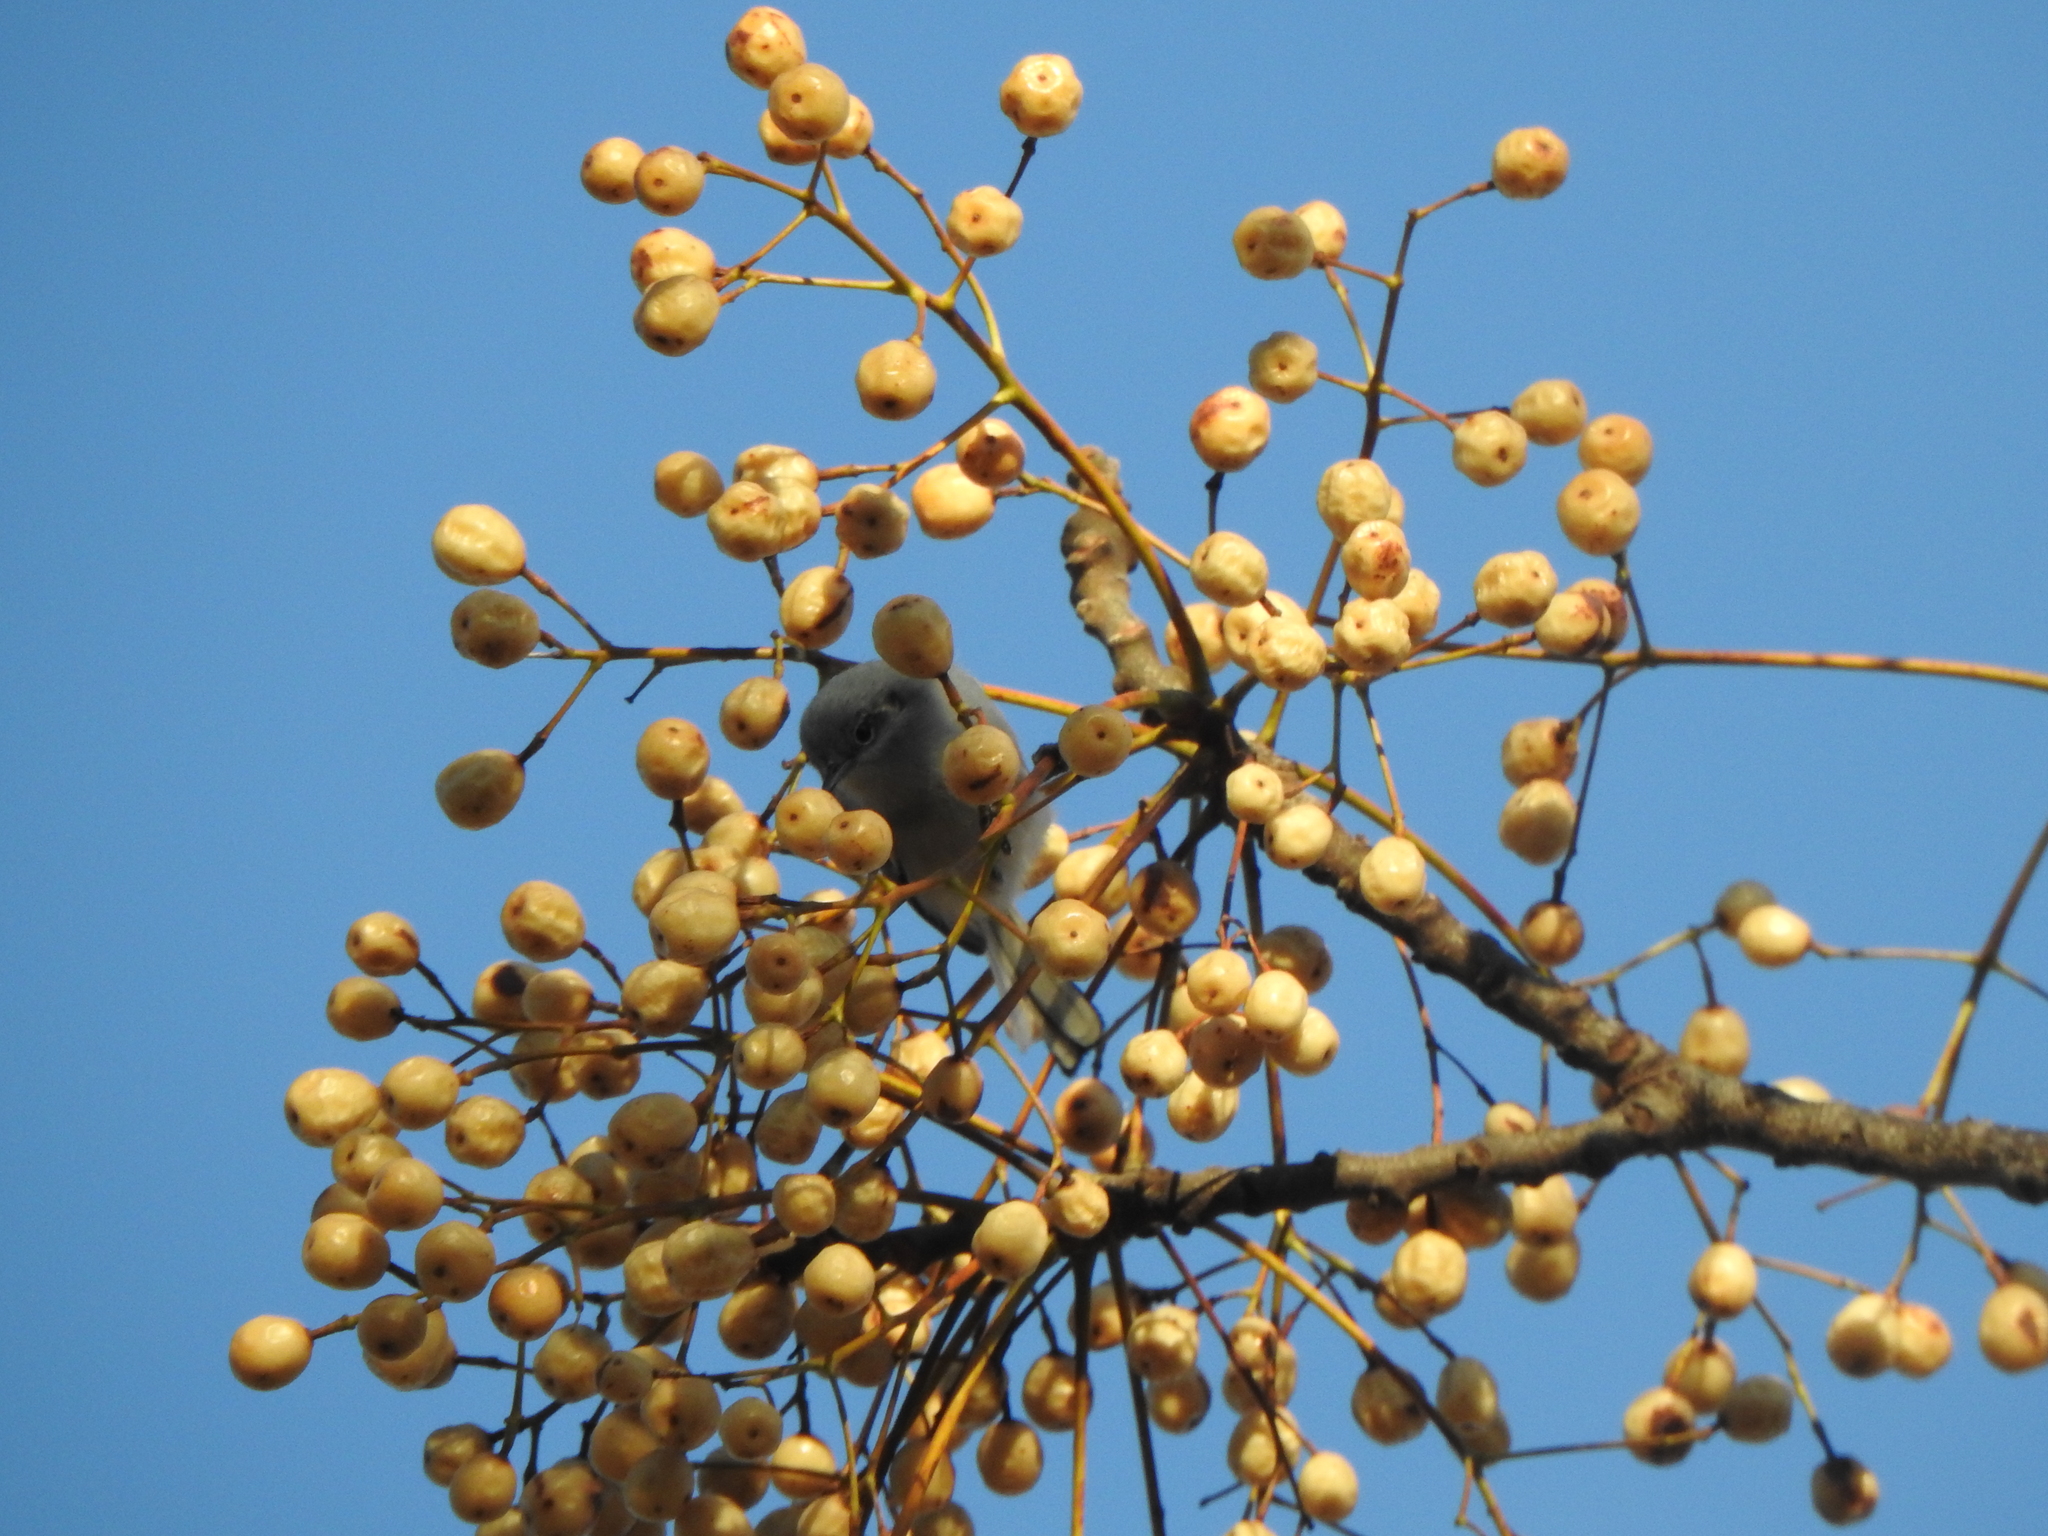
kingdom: Animalia
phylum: Chordata
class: Aves
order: Passeriformes
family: Polioptilidae
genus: Polioptila
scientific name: Polioptila dumicola
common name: Masked gnatcatcher
